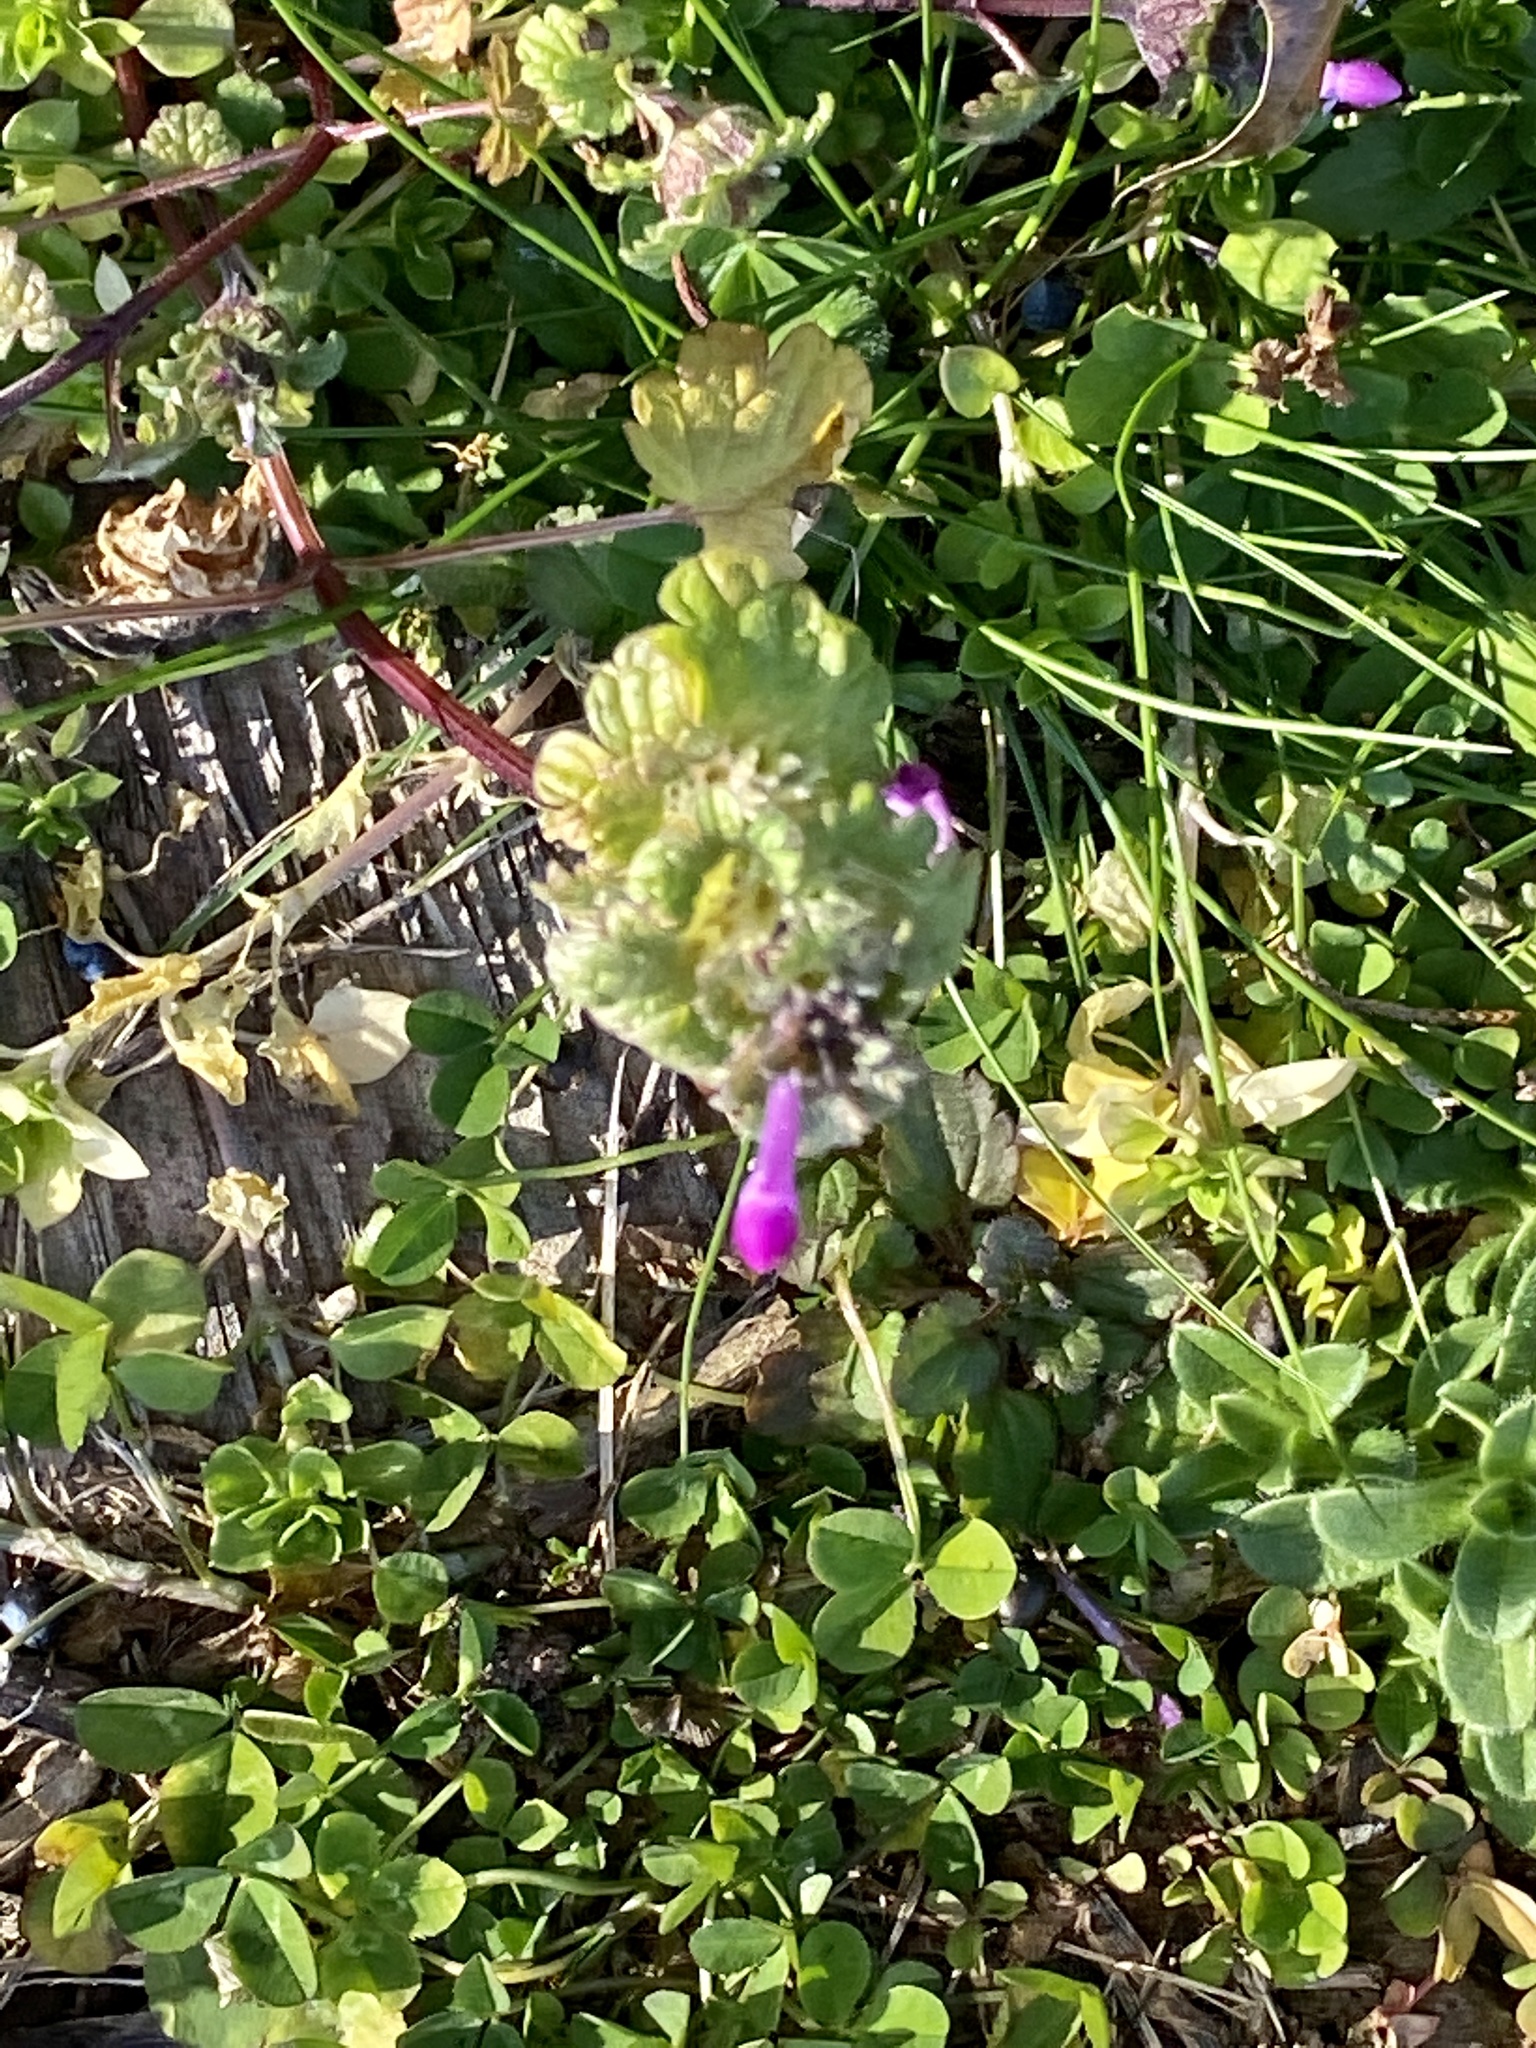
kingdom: Plantae
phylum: Tracheophyta
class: Magnoliopsida
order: Lamiales
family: Lamiaceae
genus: Lamium
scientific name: Lamium amplexicaule
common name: Henbit dead-nettle
